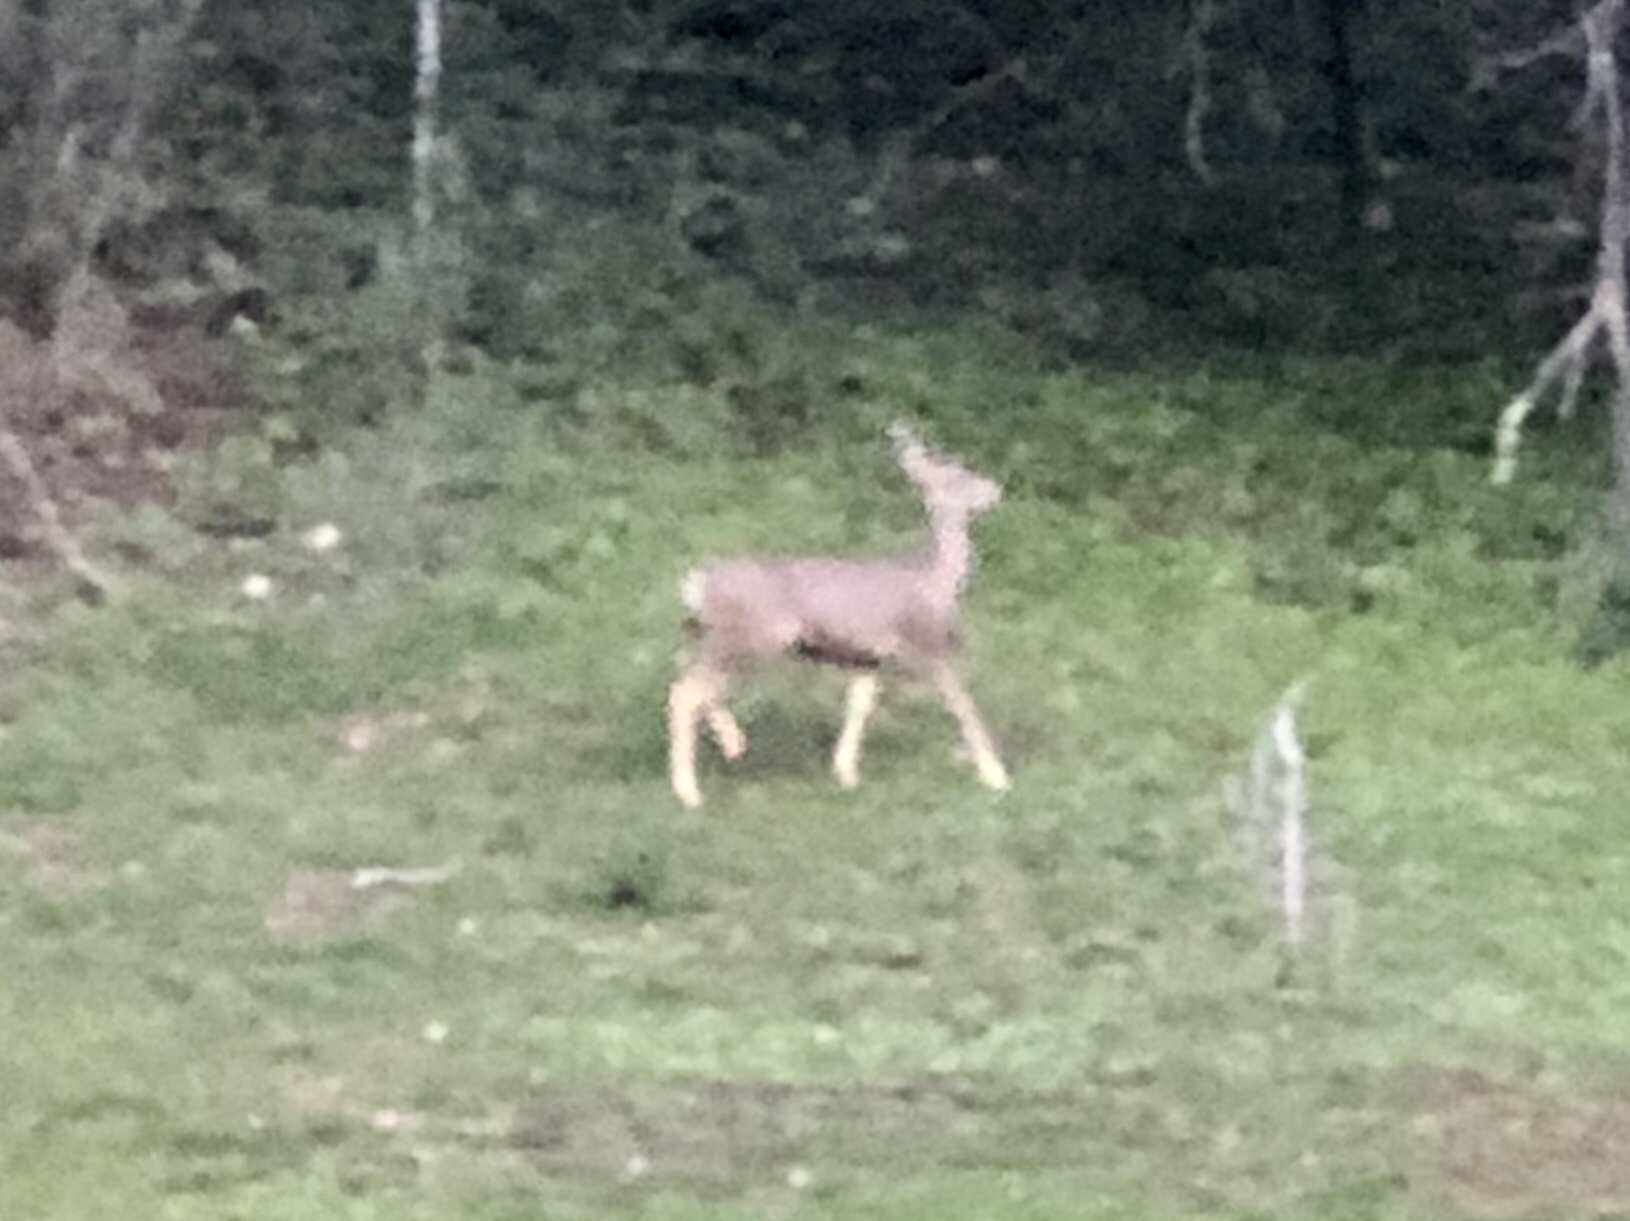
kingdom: Animalia
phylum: Chordata
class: Mammalia
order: Artiodactyla
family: Cervidae
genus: Odocoileus
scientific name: Odocoileus hemionus
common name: Mule deer
